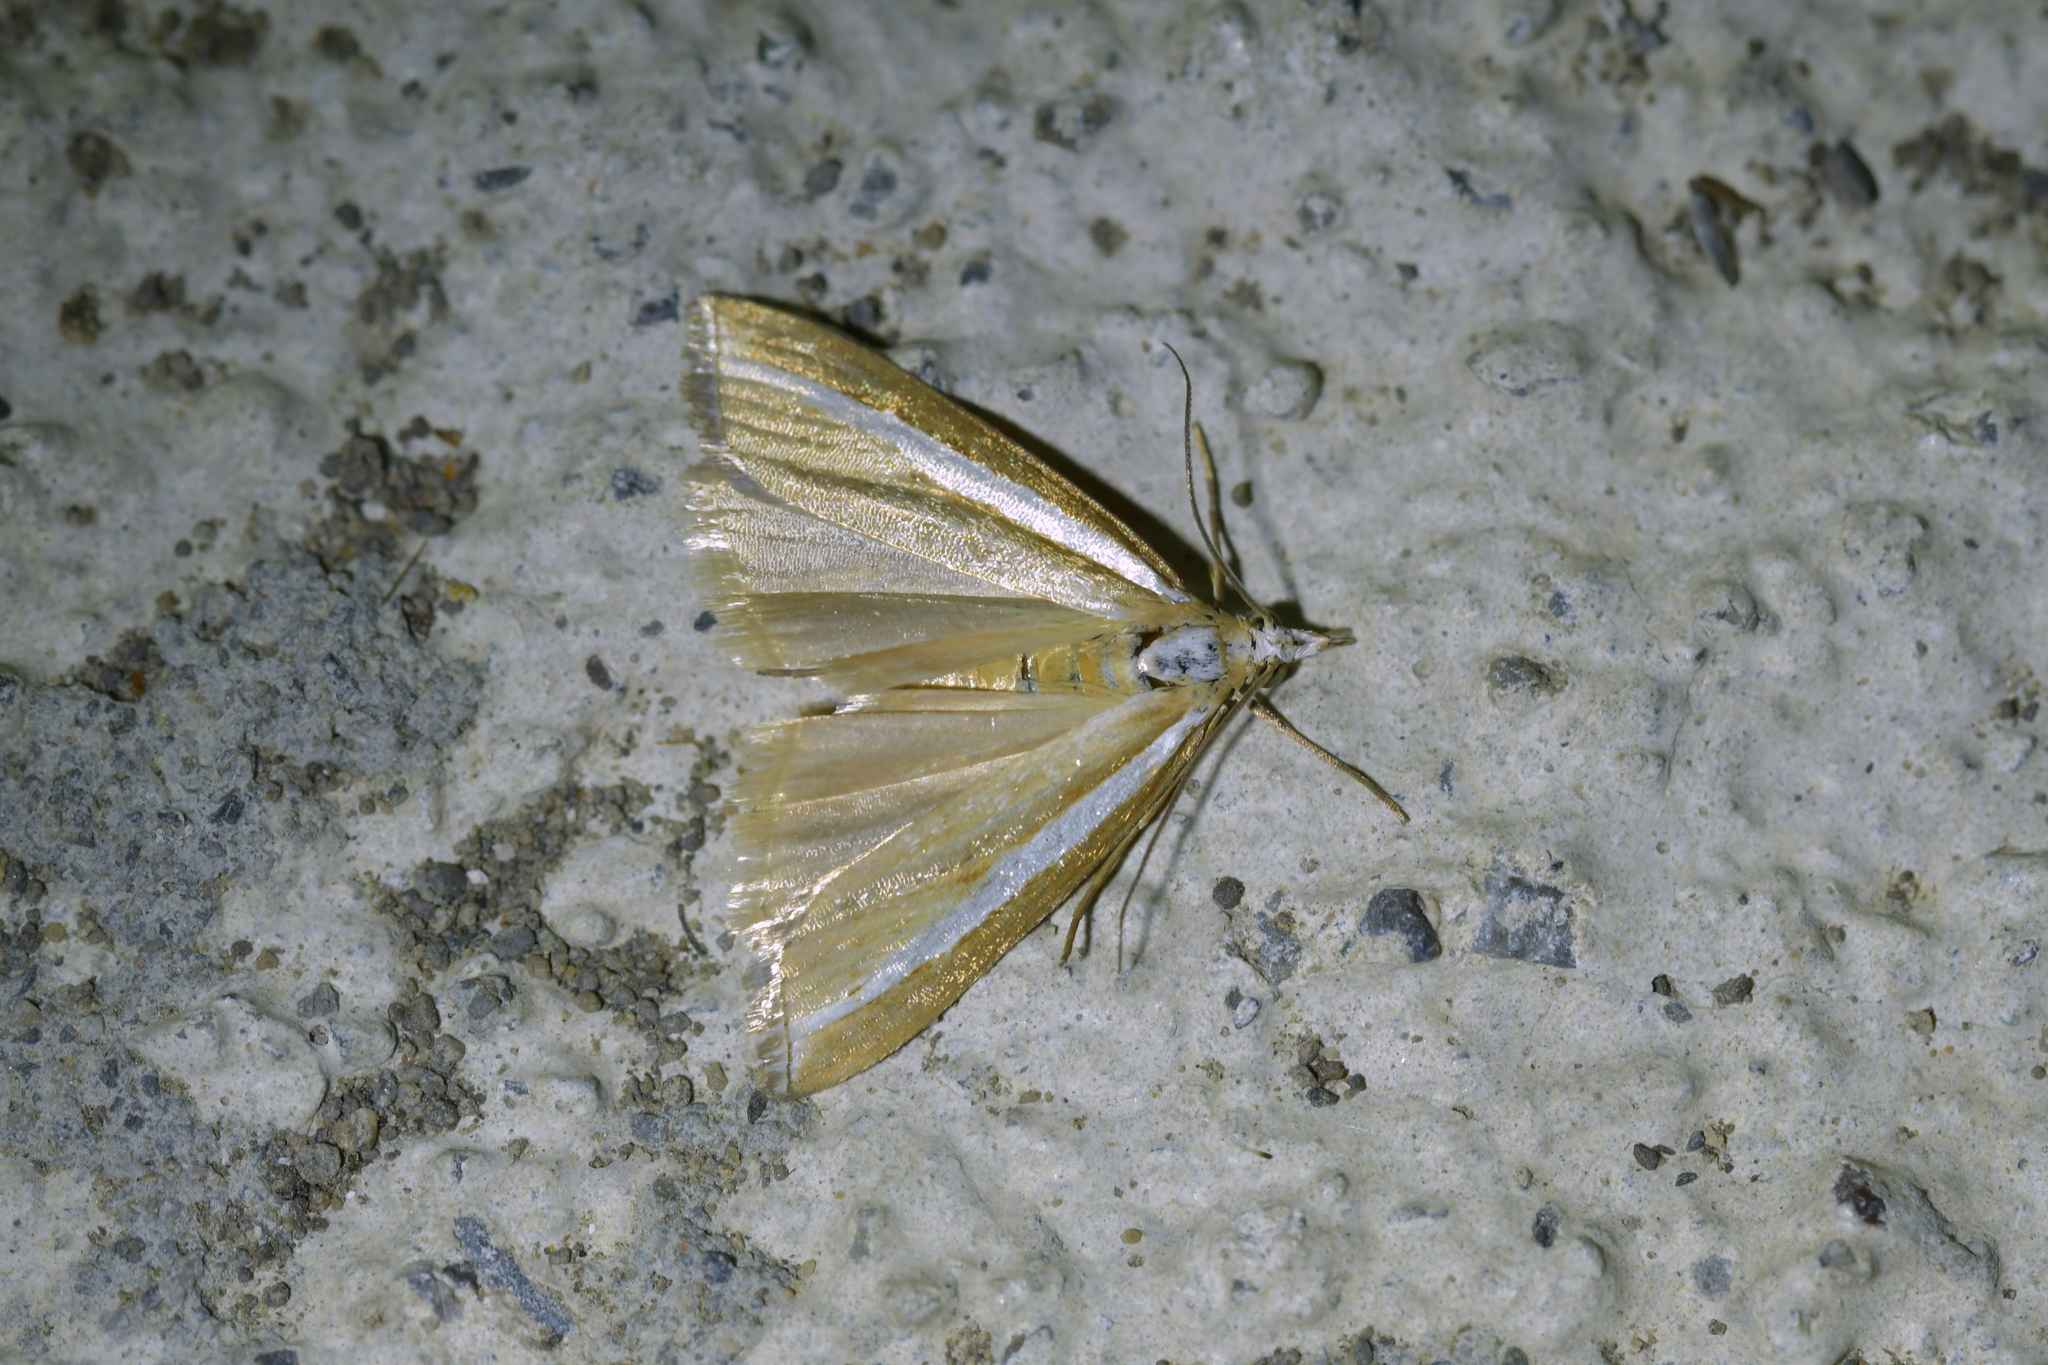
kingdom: Animalia
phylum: Arthropoda
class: Insecta
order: Lepidoptera
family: Crambidae
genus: Orocrambus
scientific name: Orocrambus vittellus
